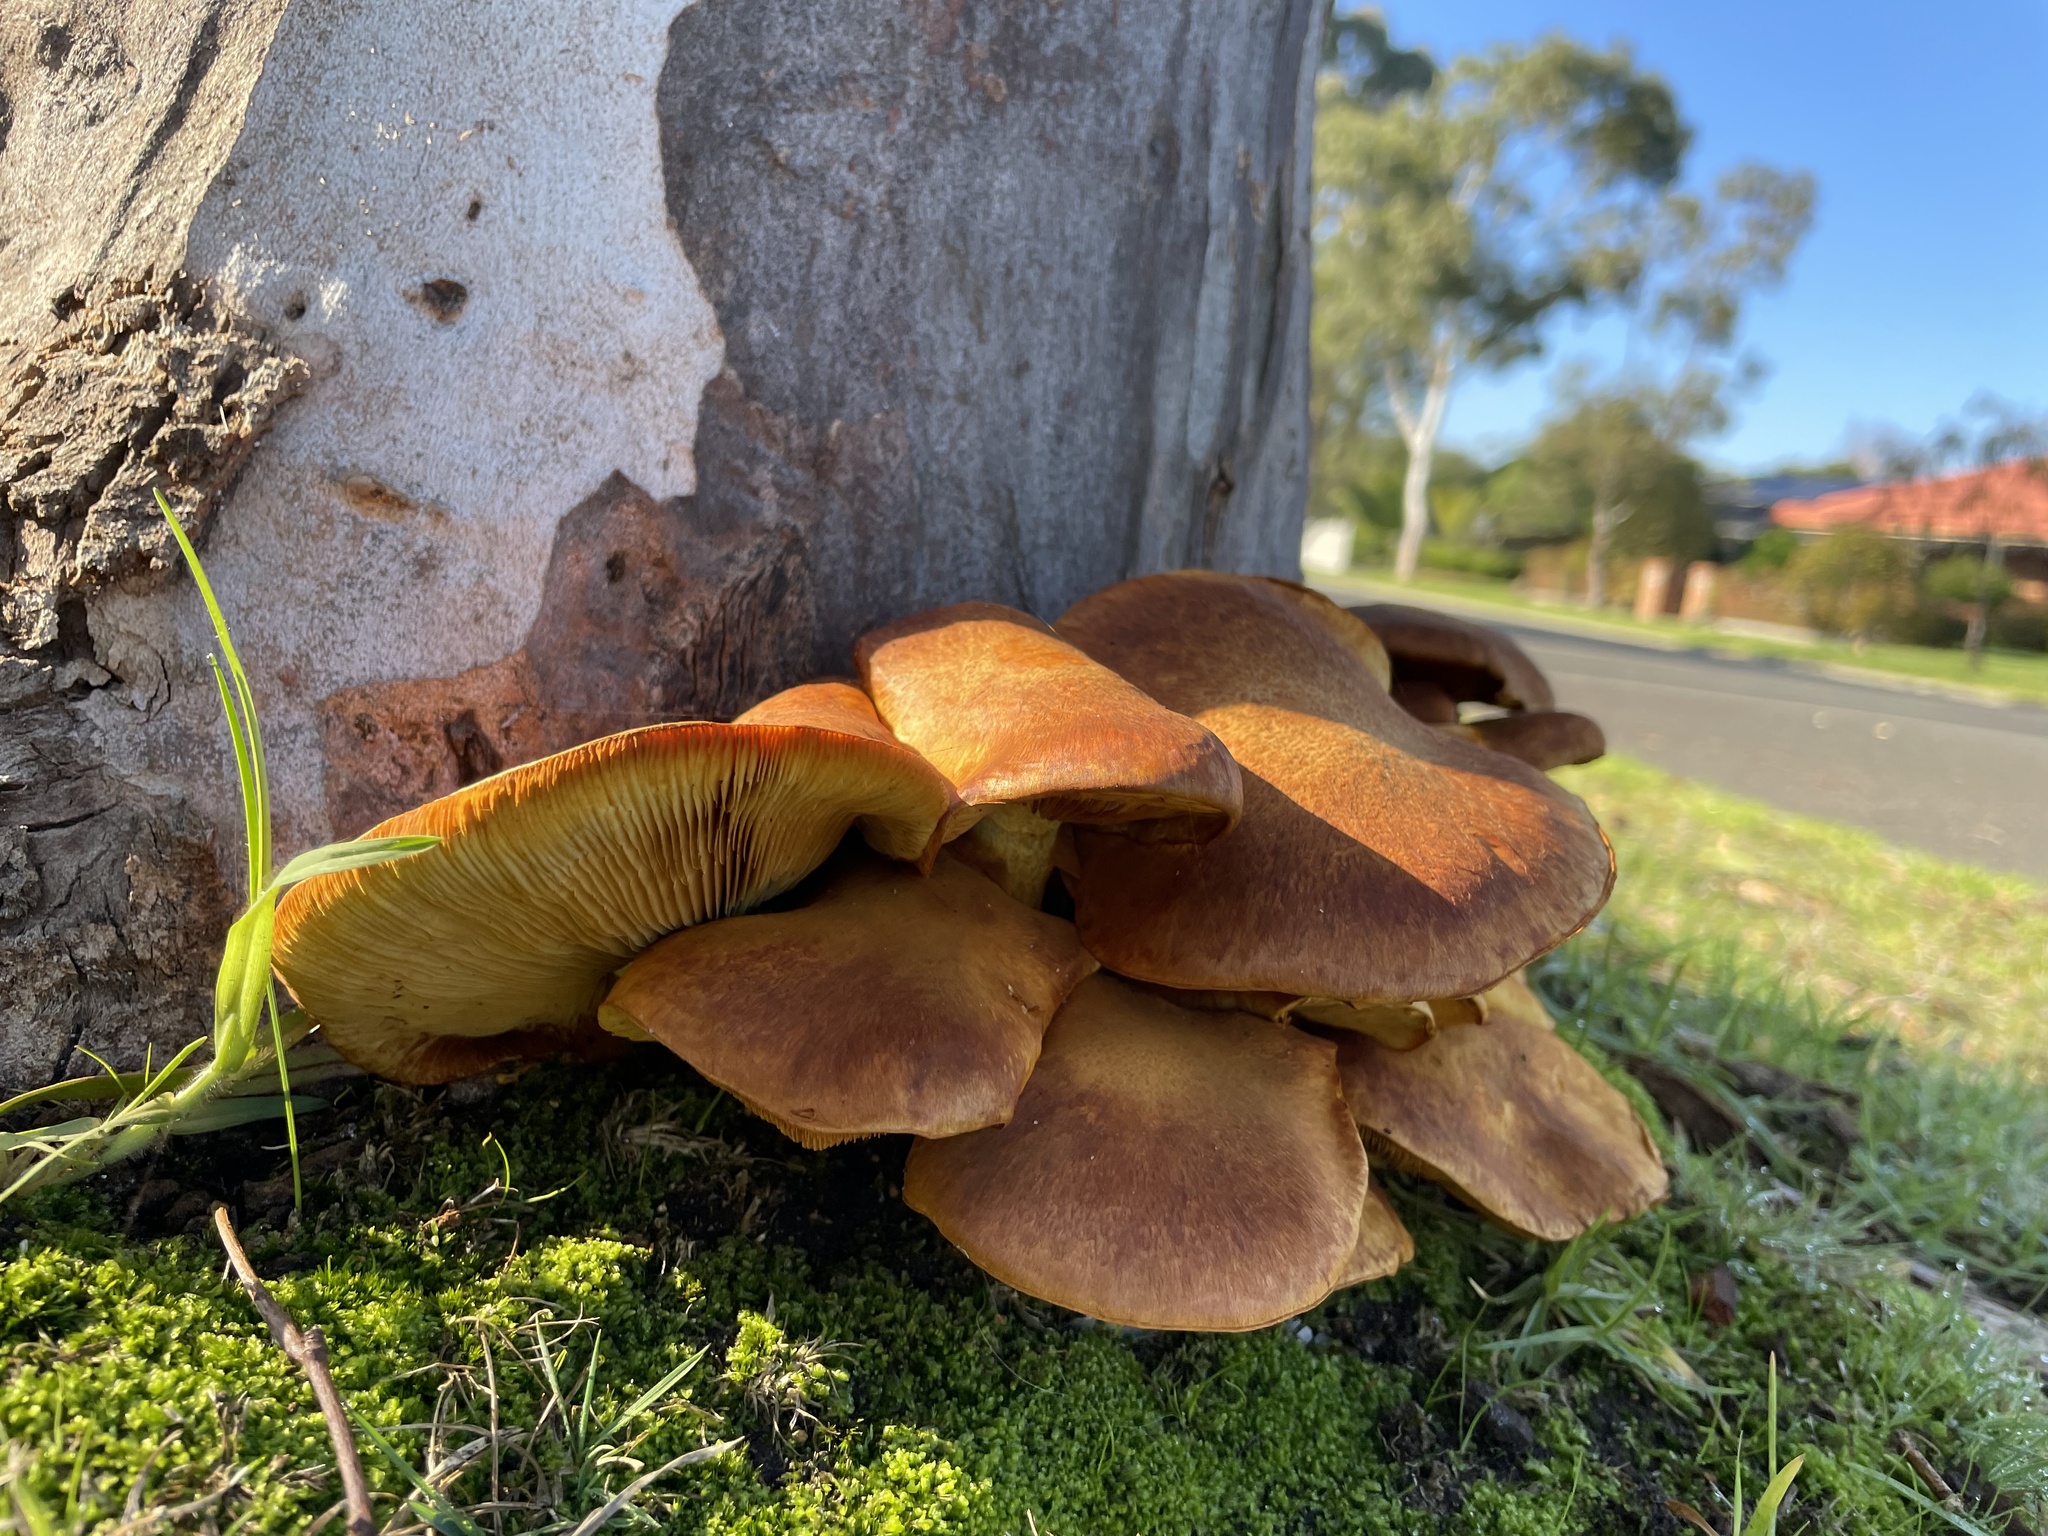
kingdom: Fungi
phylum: Basidiomycota
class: Agaricomycetes
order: Agaricales
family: Hymenogastraceae
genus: Gymnopilus
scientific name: Gymnopilus junonius
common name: Spectacular rustgill
